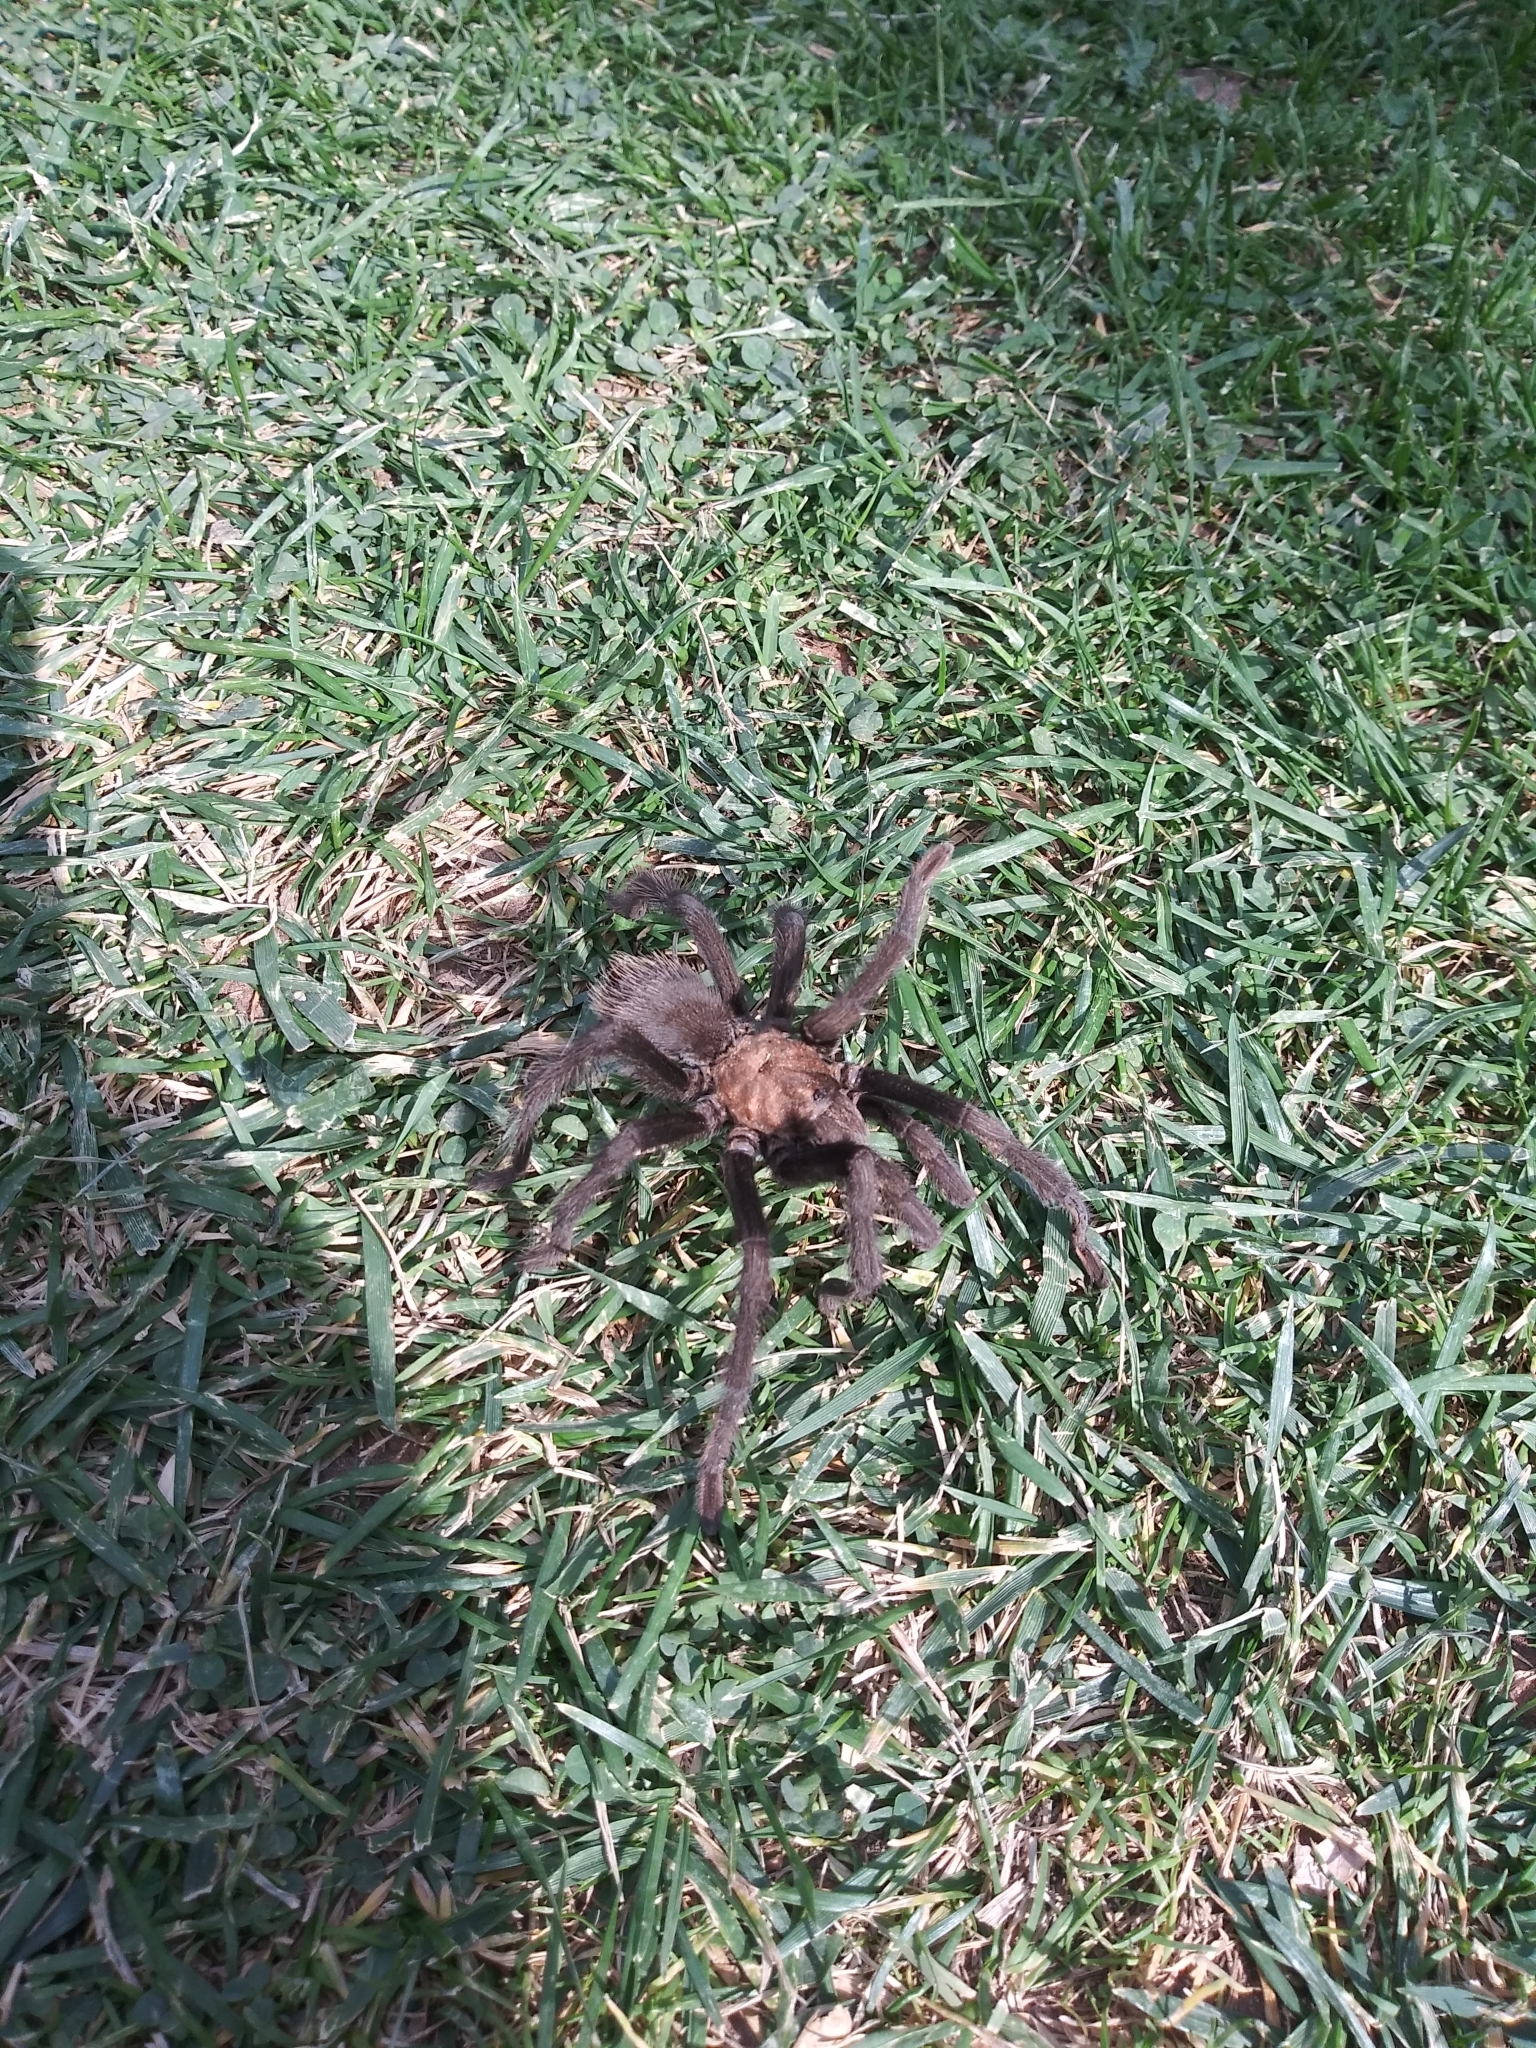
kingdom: Animalia
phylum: Arthropoda
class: Arachnida
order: Araneae
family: Theraphosidae
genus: Aphonopelma
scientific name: Aphonopelma iodius
